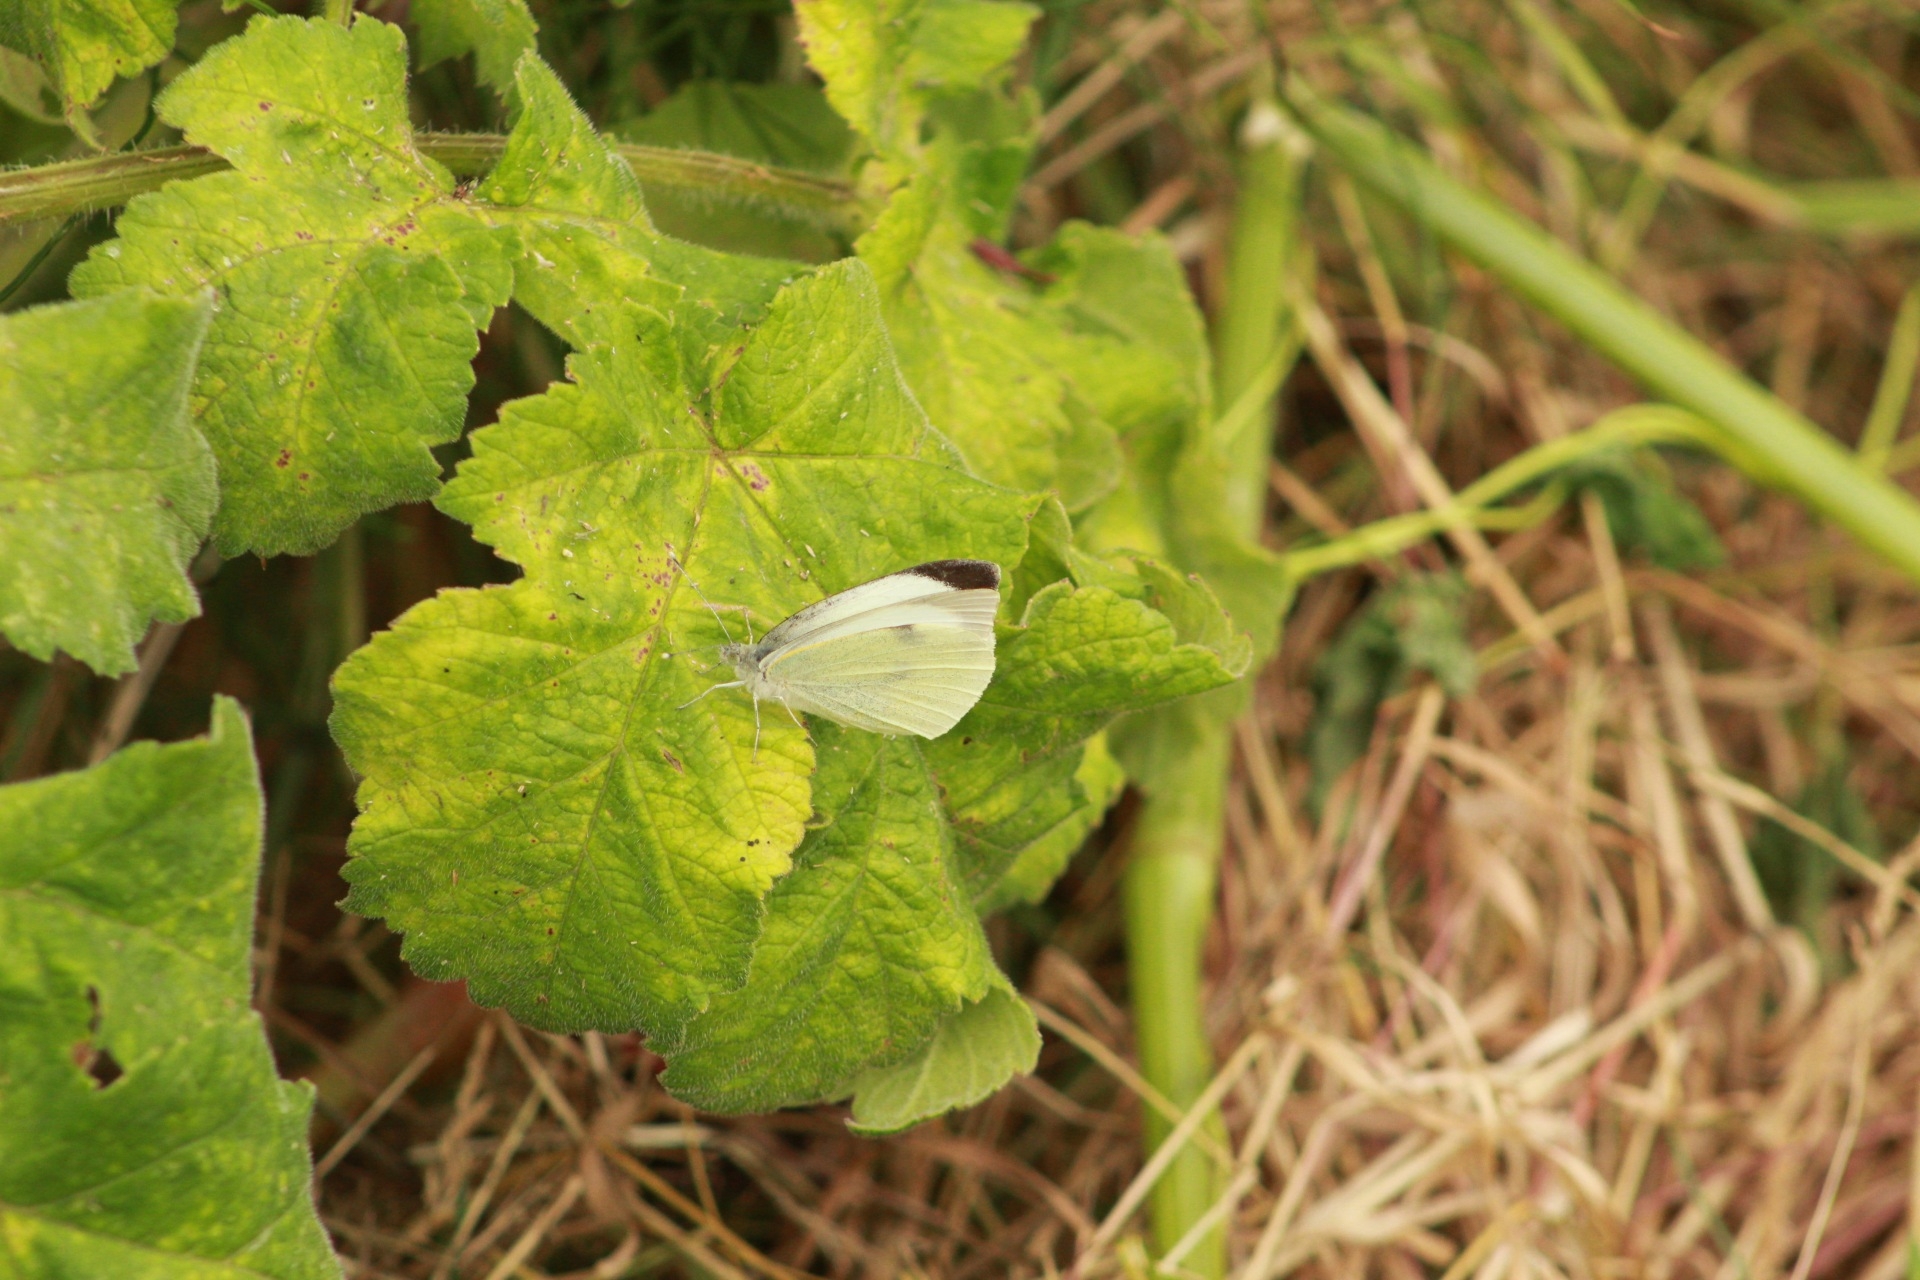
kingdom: Animalia
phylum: Arthropoda
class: Insecta
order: Lepidoptera
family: Pieridae
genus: Pieris
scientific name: Pieris brassicae
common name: Large white
